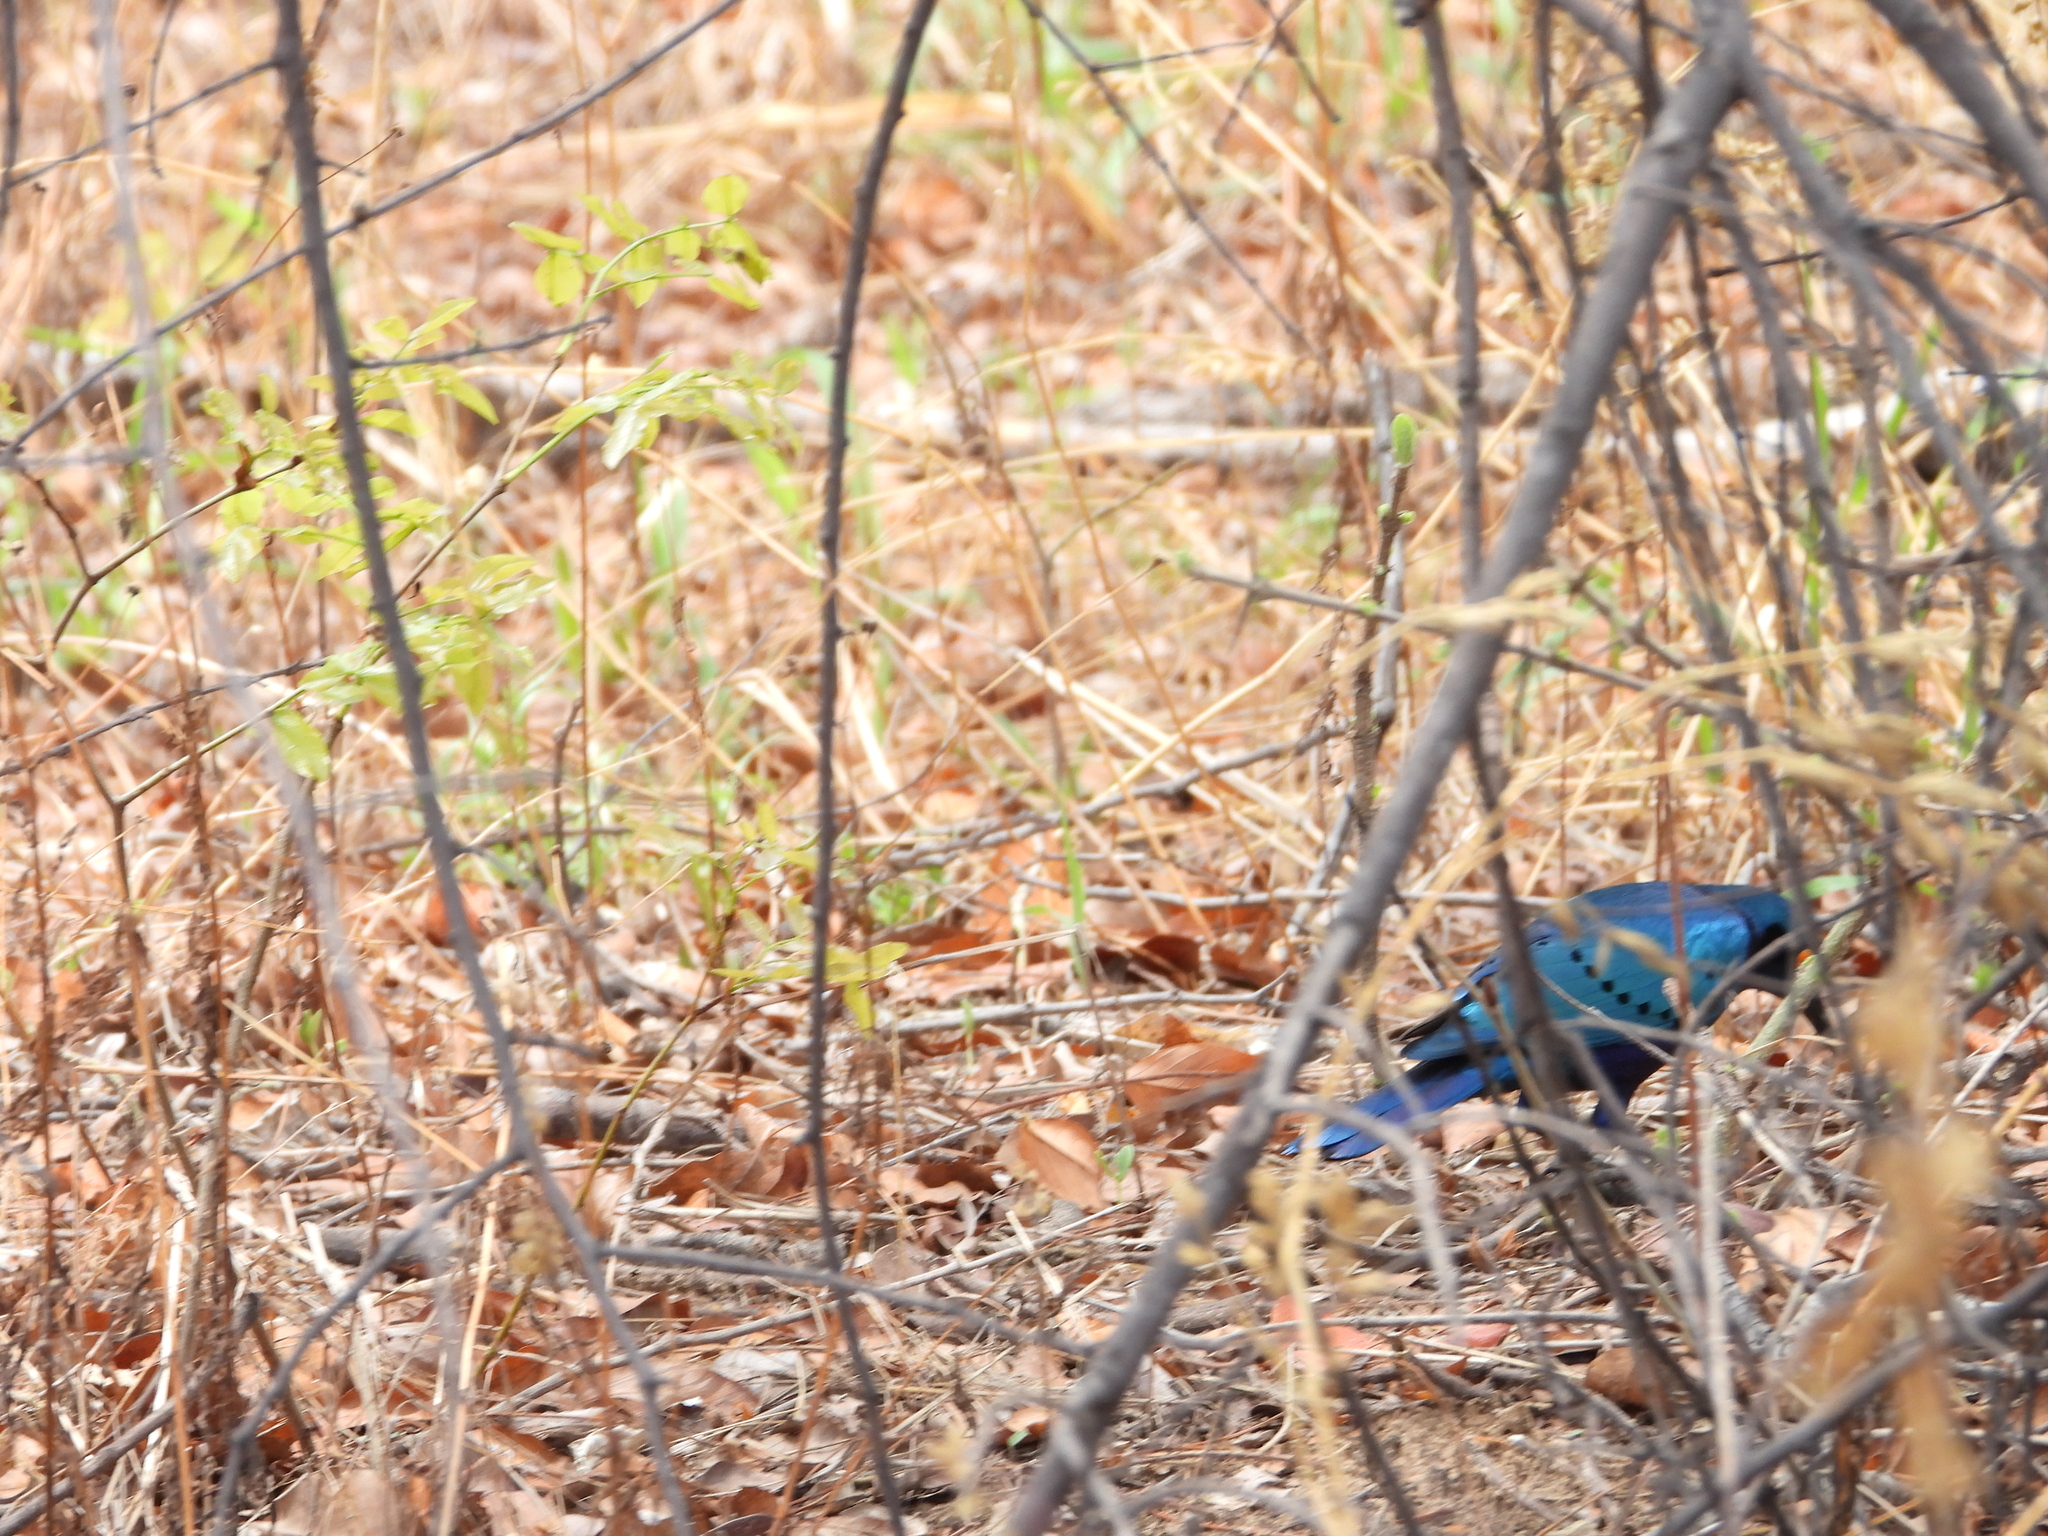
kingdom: Animalia
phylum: Chordata
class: Aves
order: Passeriformes
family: Sturnidae
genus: Lamprotornis
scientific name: Lamprotornis chalybaeus
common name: Greater blue-eared starling
